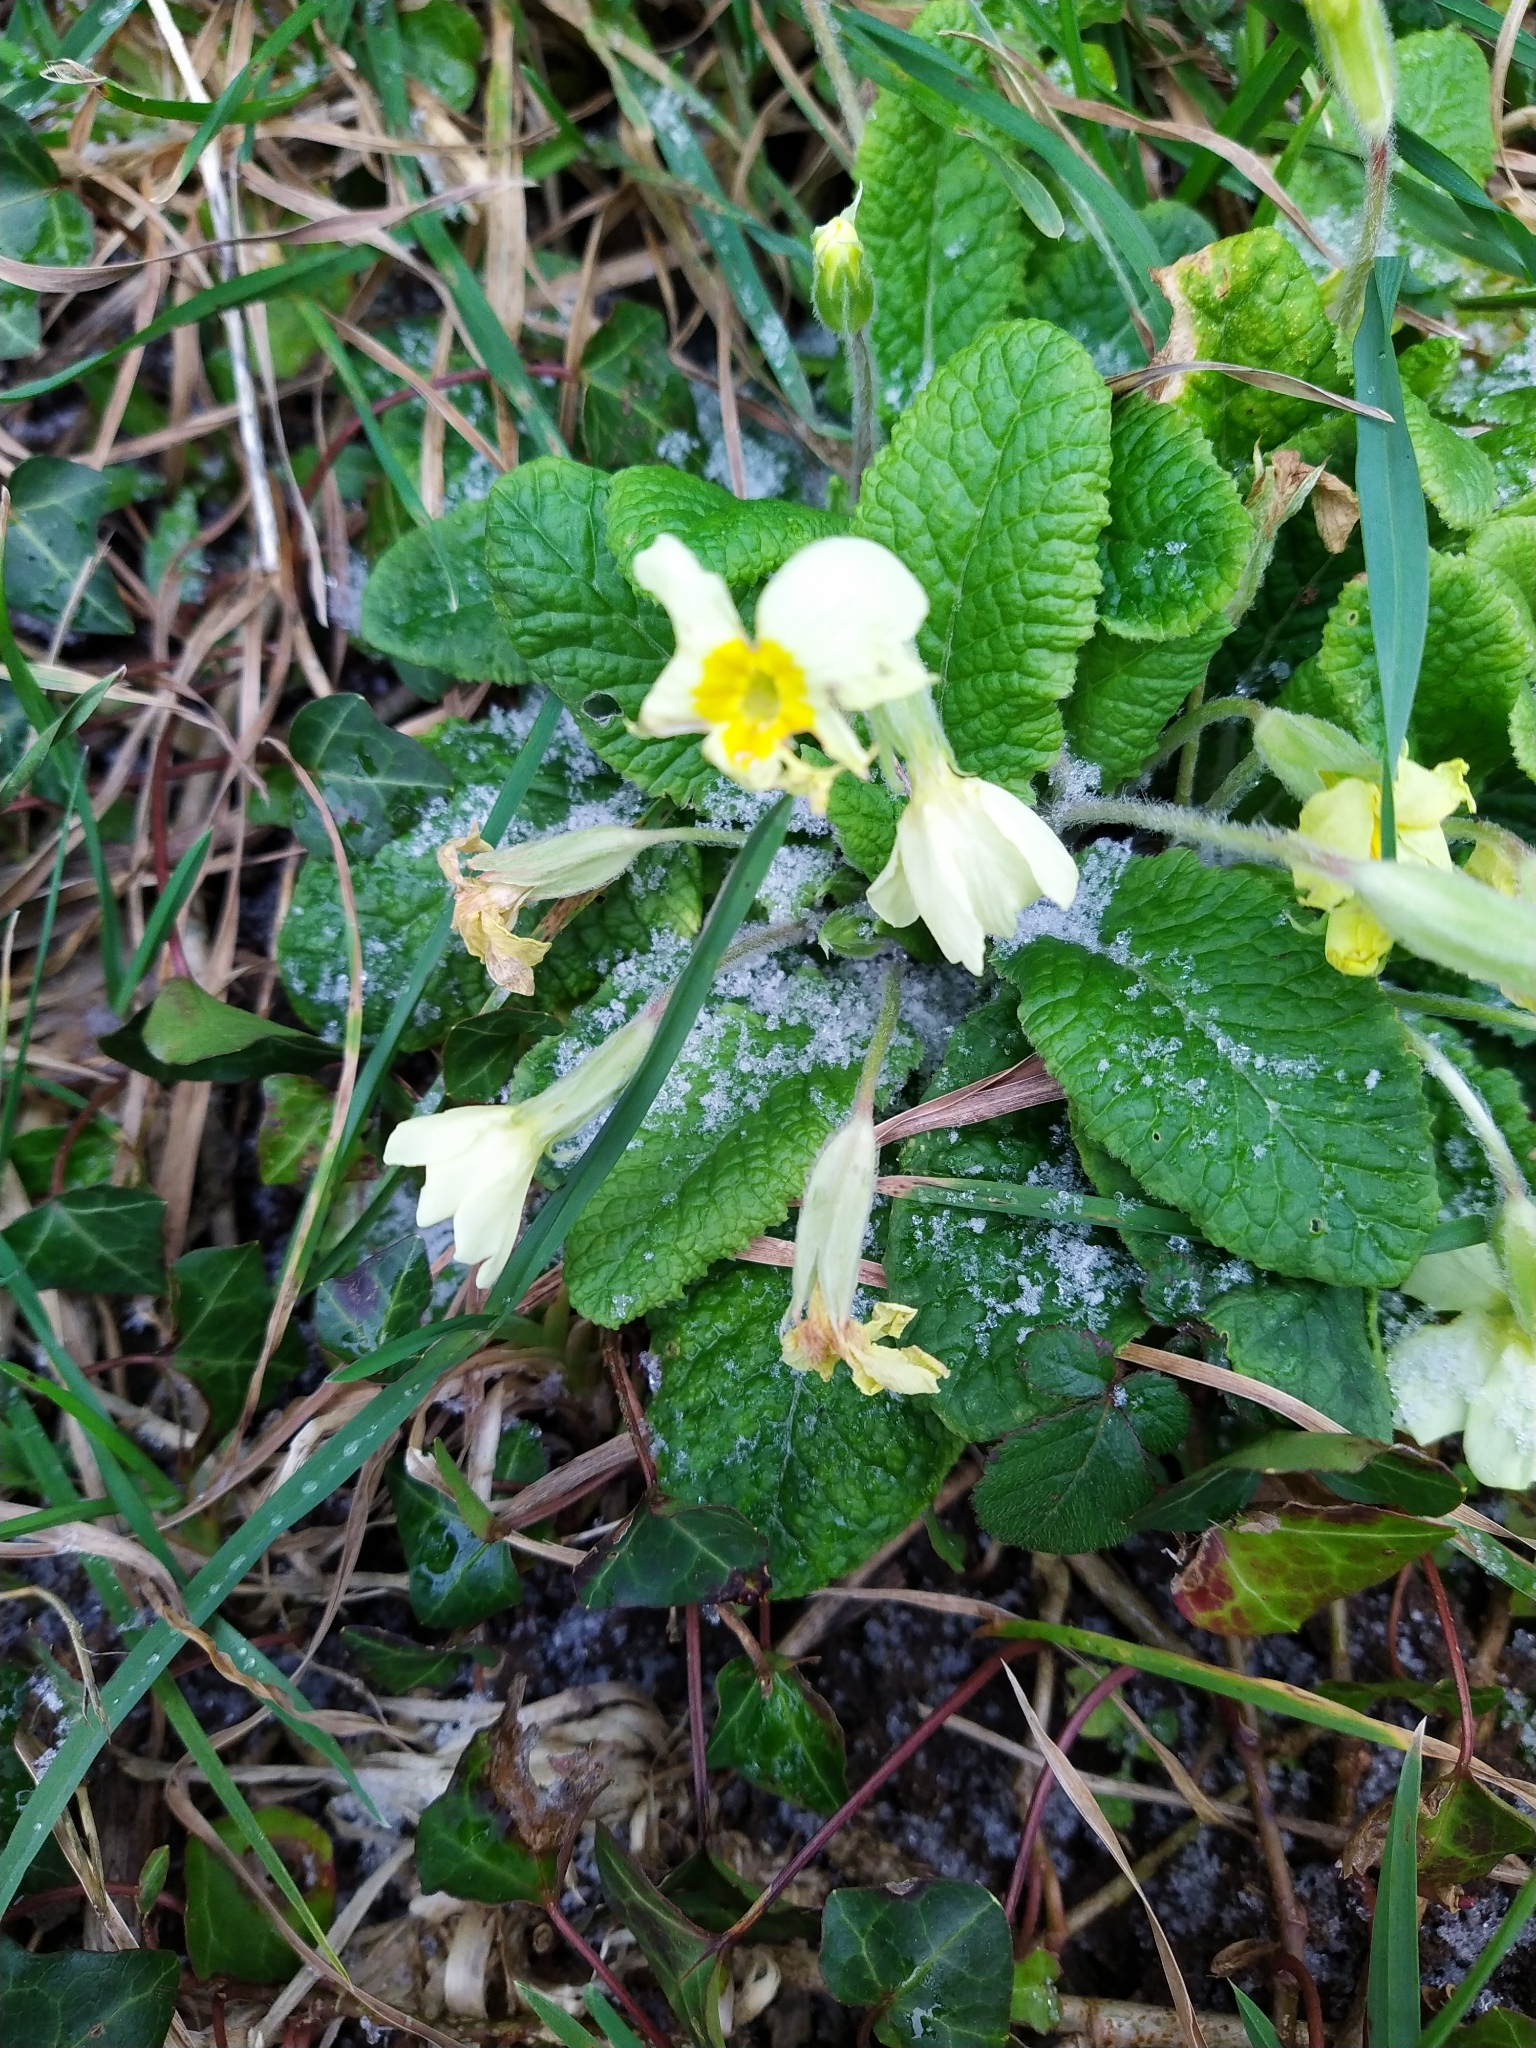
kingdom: Plantae
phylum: Tracheophyta
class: Magnoliopsida
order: Ericales
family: Primulaceae
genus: Primula
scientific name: Primula vulgaris
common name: Primrose
